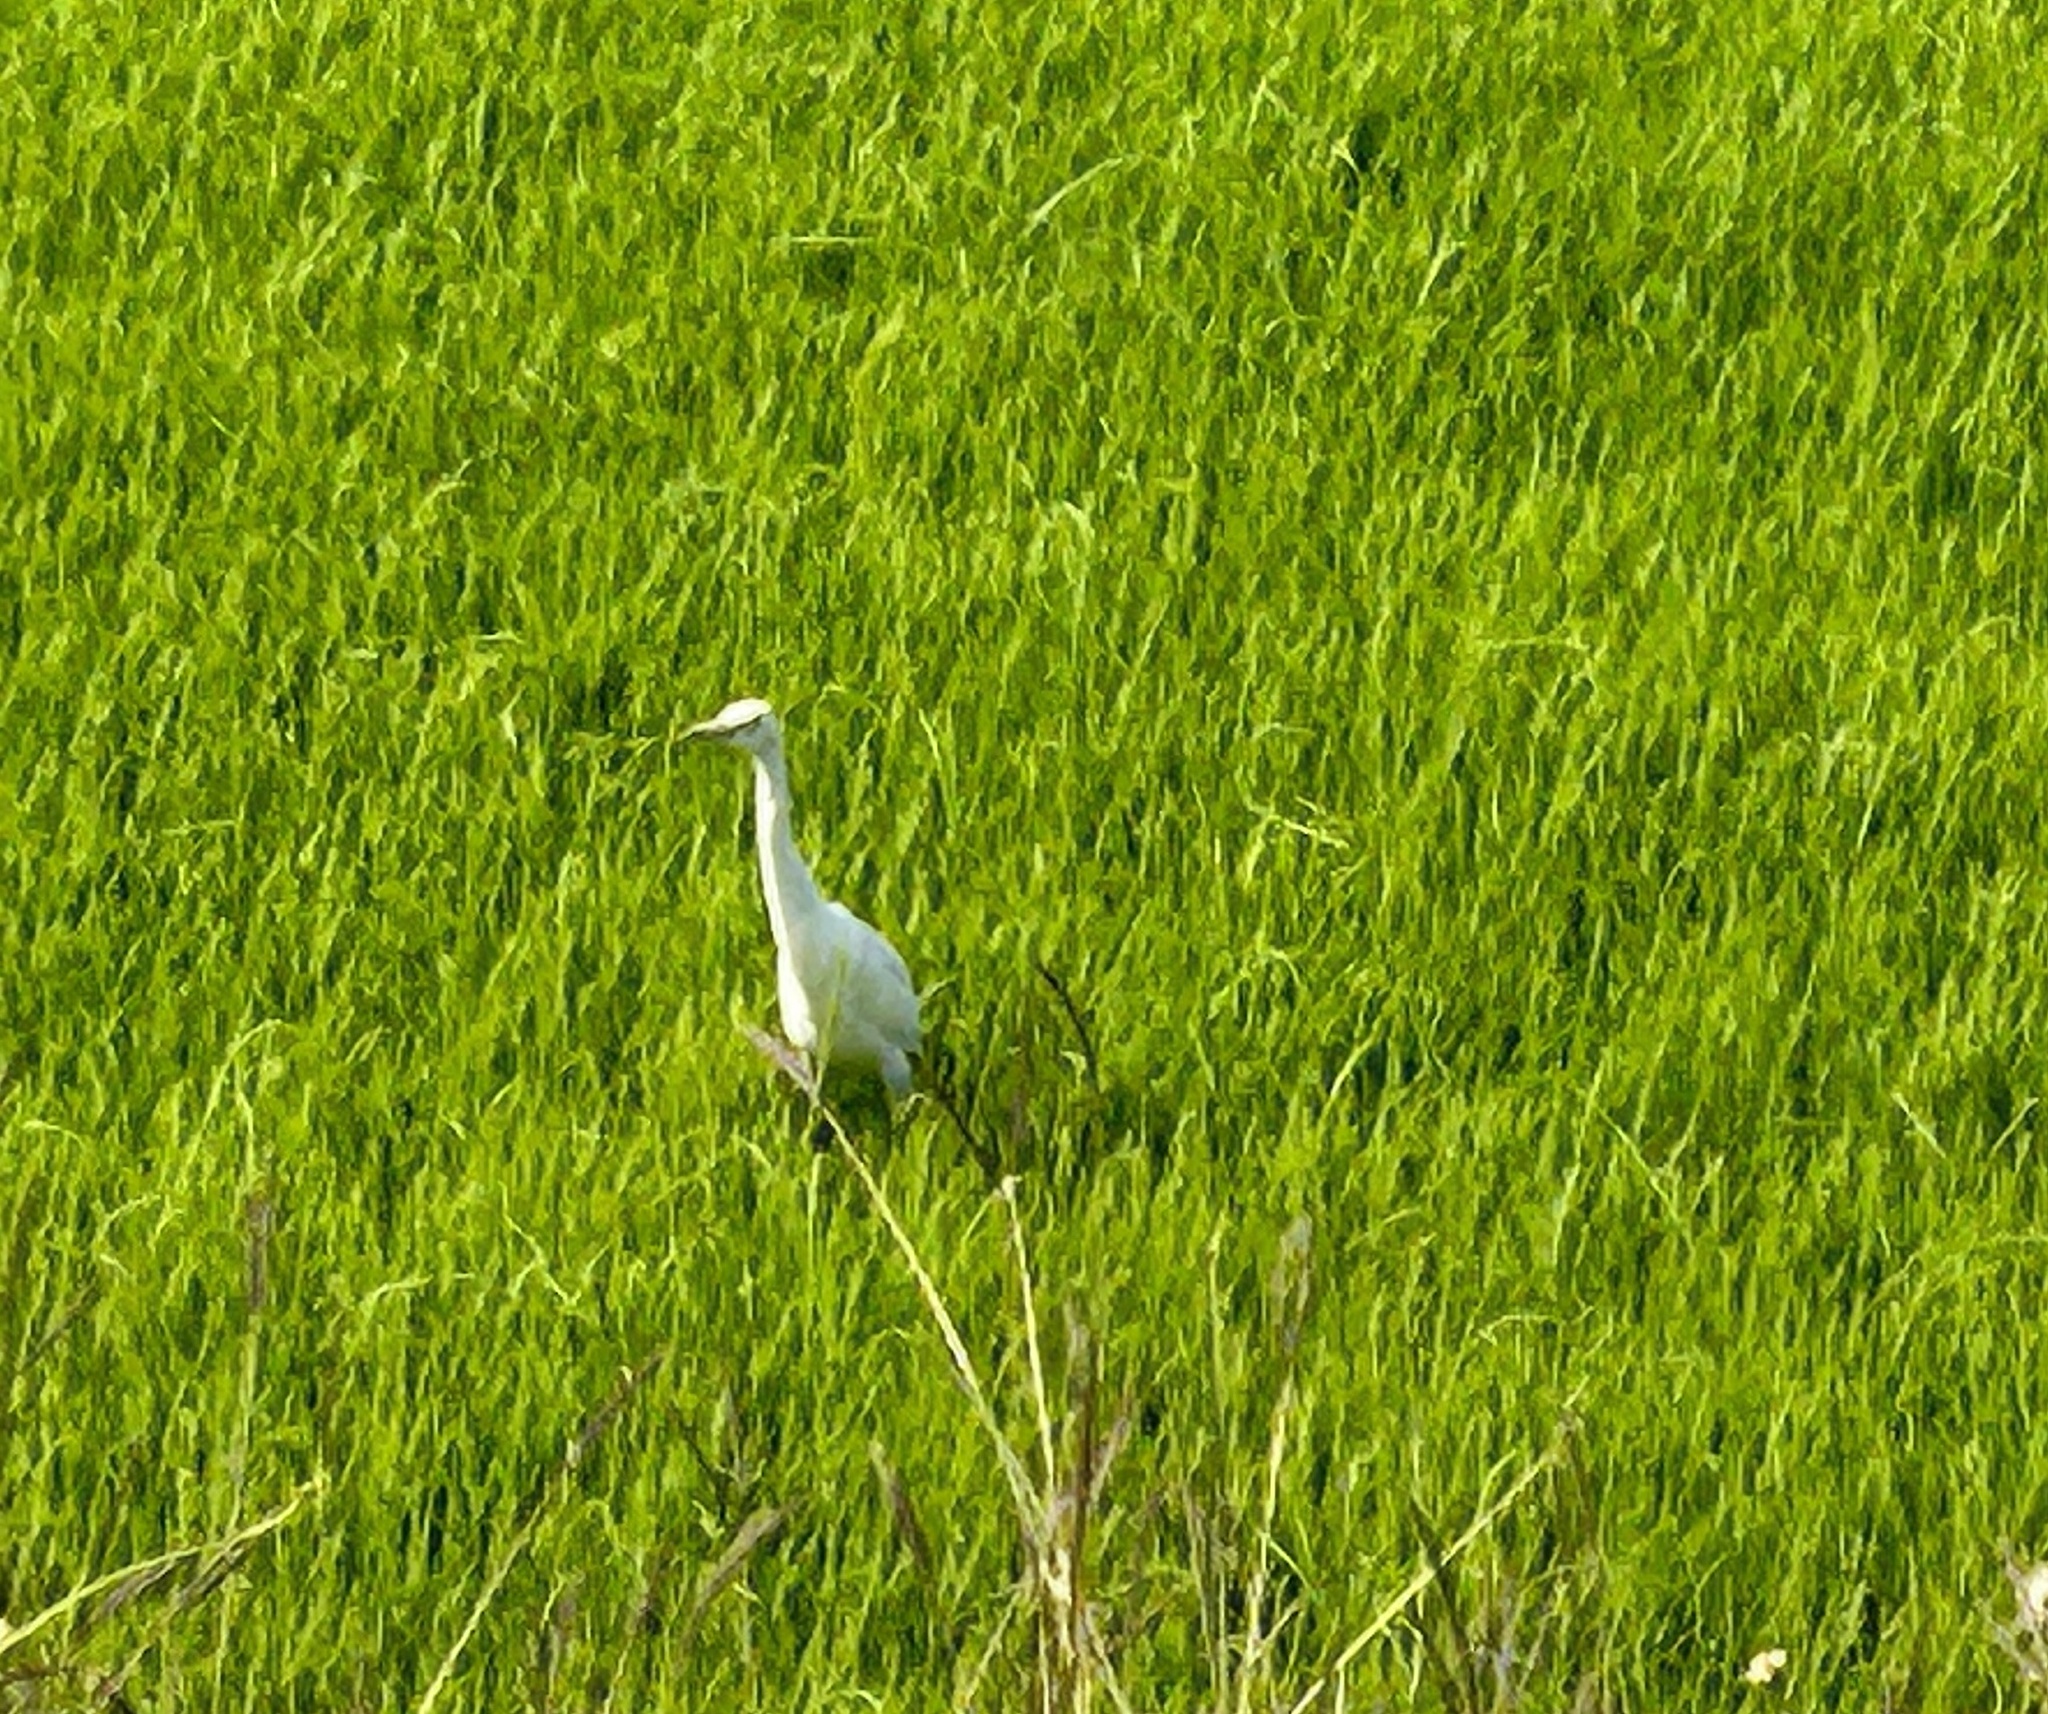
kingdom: Animalia
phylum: Chordata
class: Aves
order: Pelecaniformes
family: Ardeidae
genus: Egretta
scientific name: Egretta garzetta
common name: Little egret
